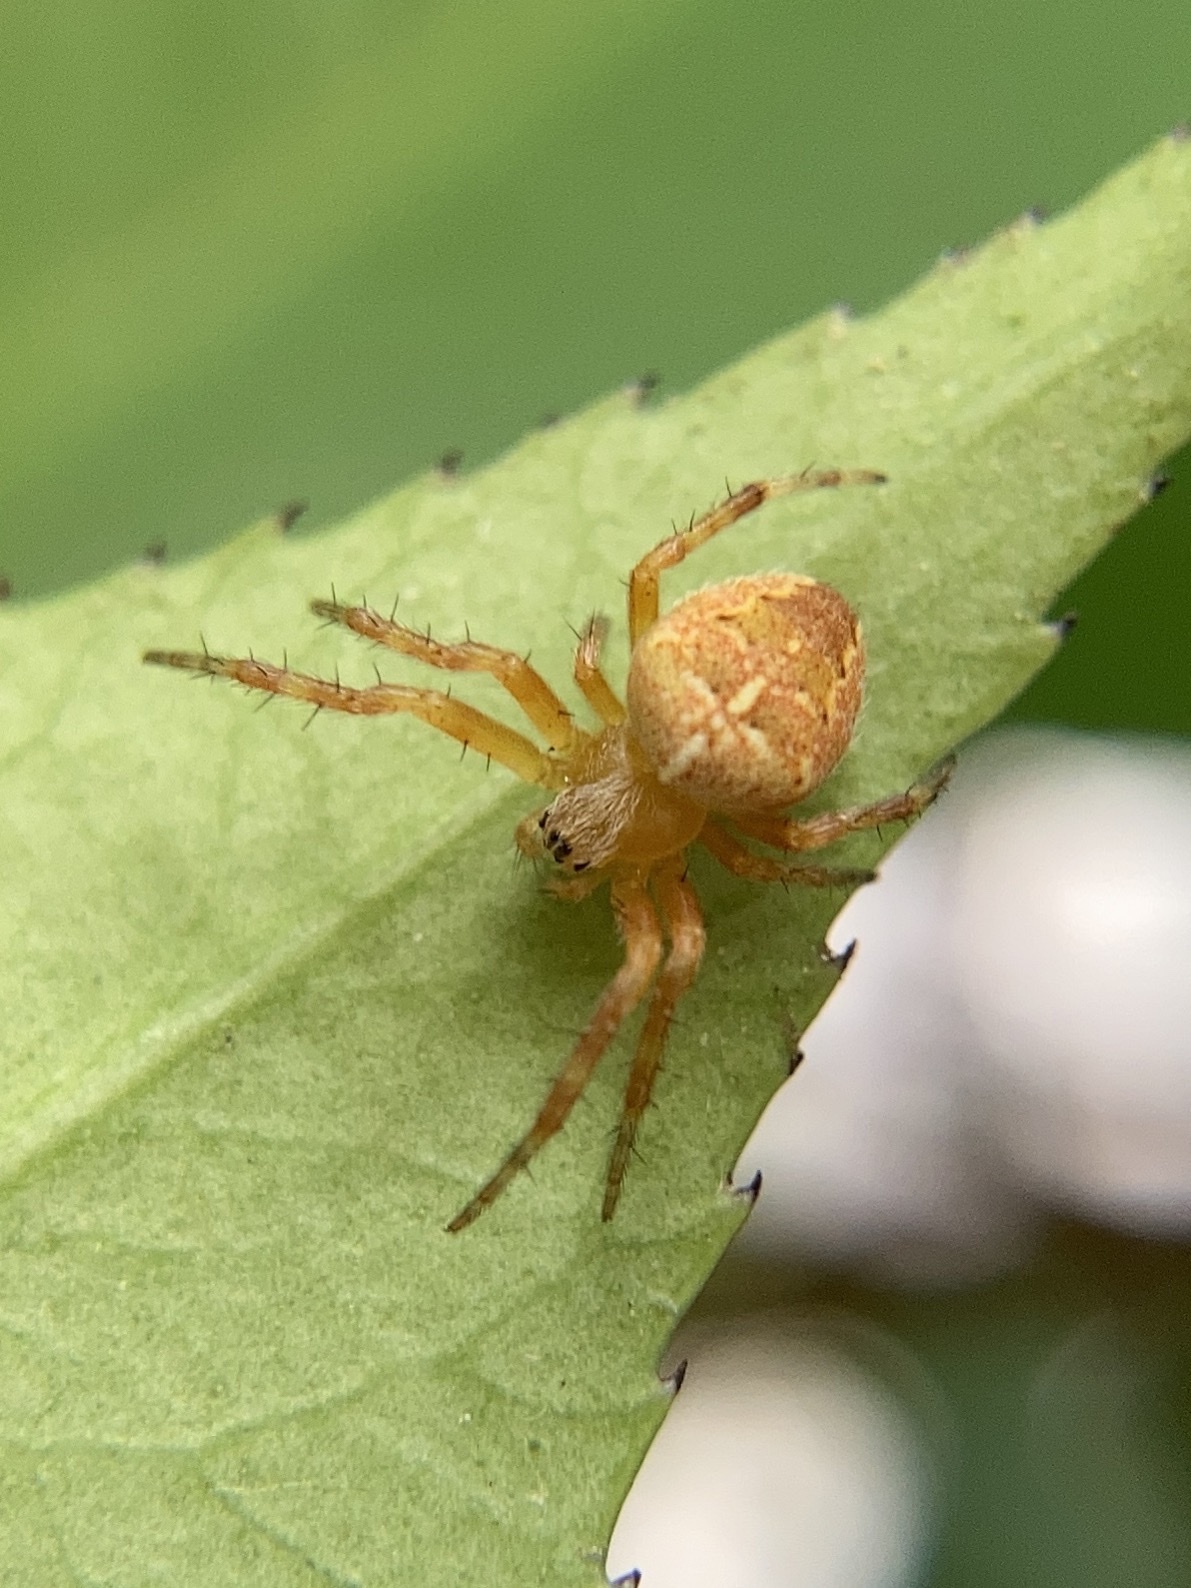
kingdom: Animalia
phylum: Arthropoda
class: Arachnida
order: Araneae
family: Araneidae
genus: Araneus
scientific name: Araneus diadematus
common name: Cross orbweaver
